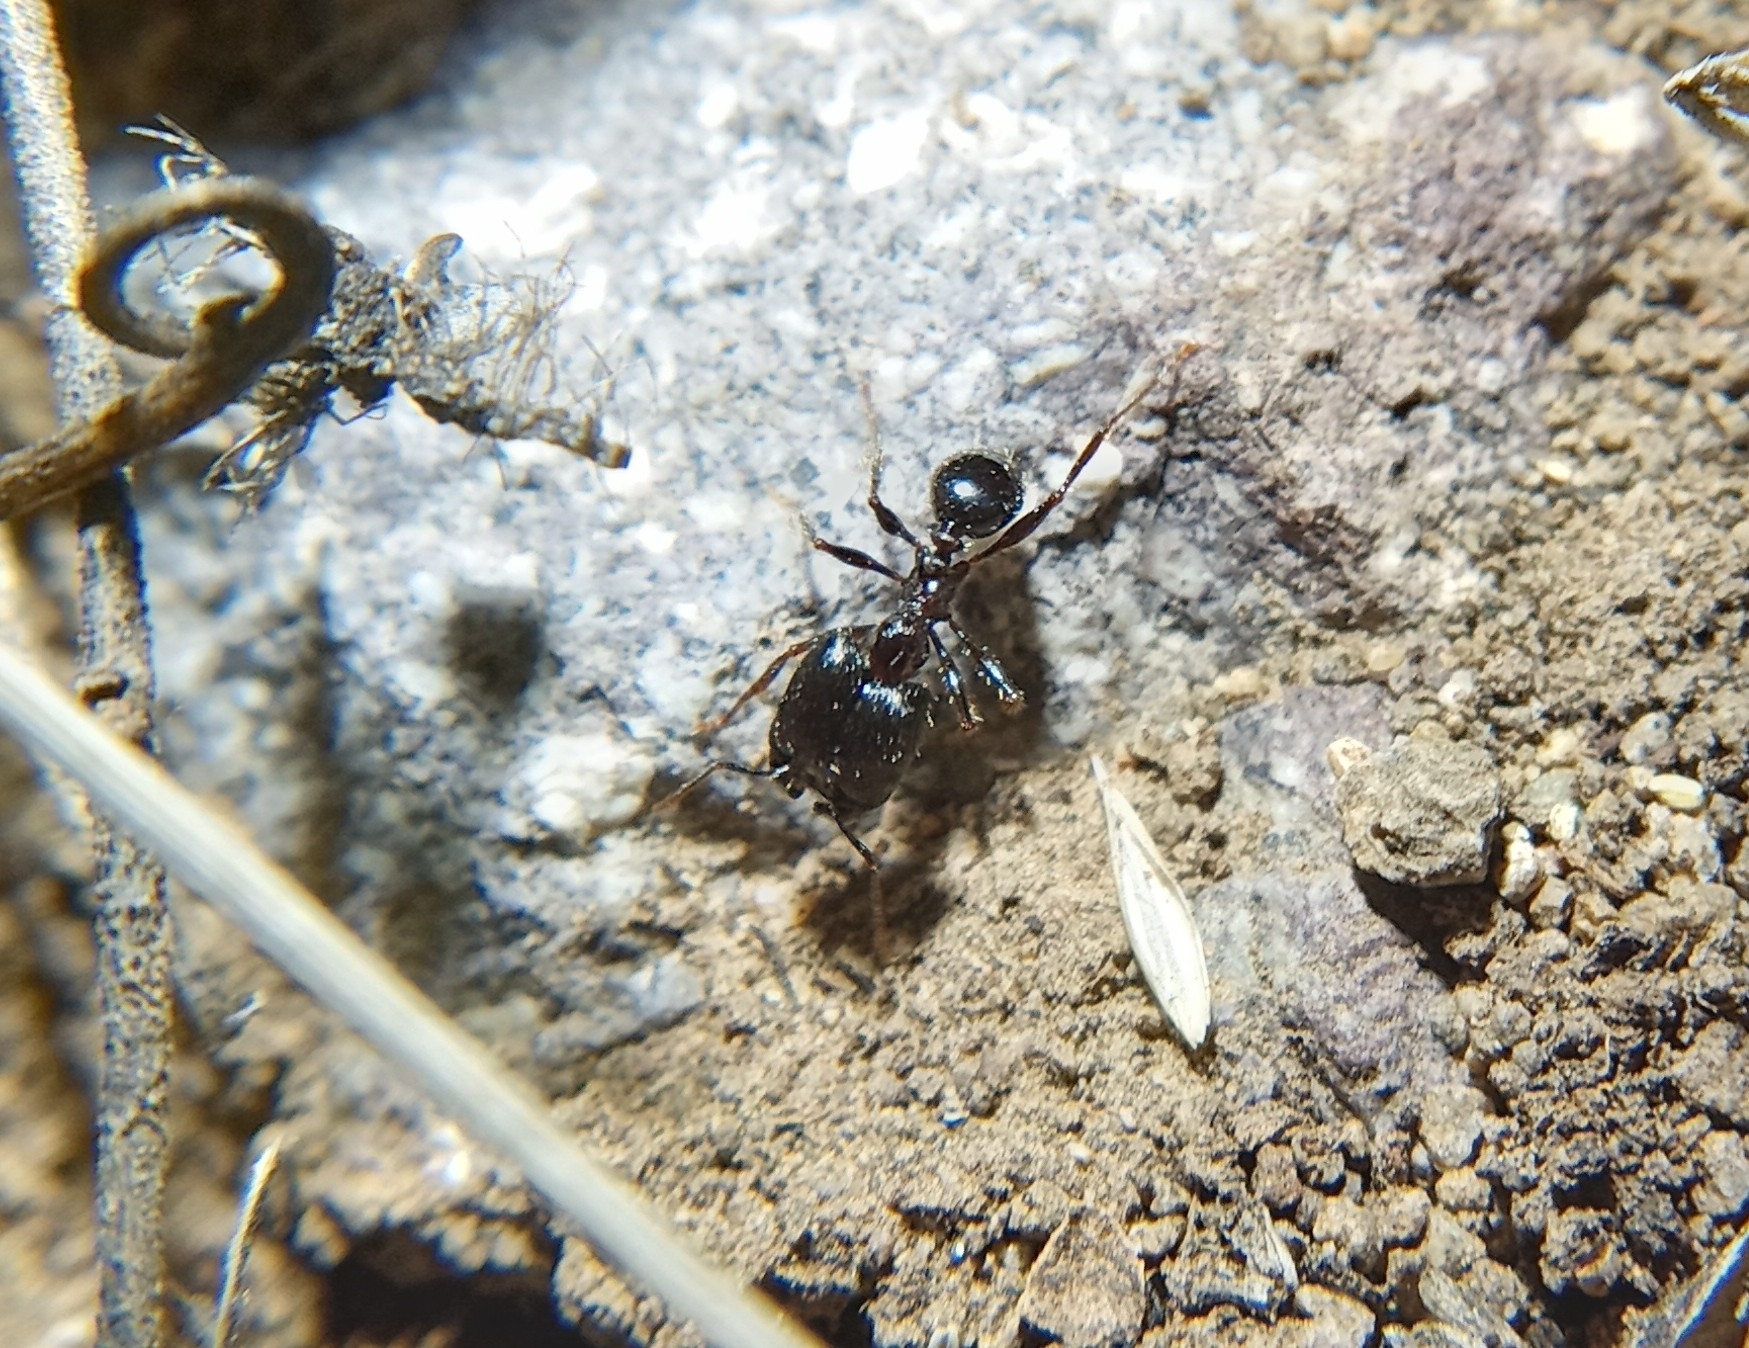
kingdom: Animalia
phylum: Arthropoda
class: Insecta
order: Hymenoptera
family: Formicidae
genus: Pheidole
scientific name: Pheidole rhea
